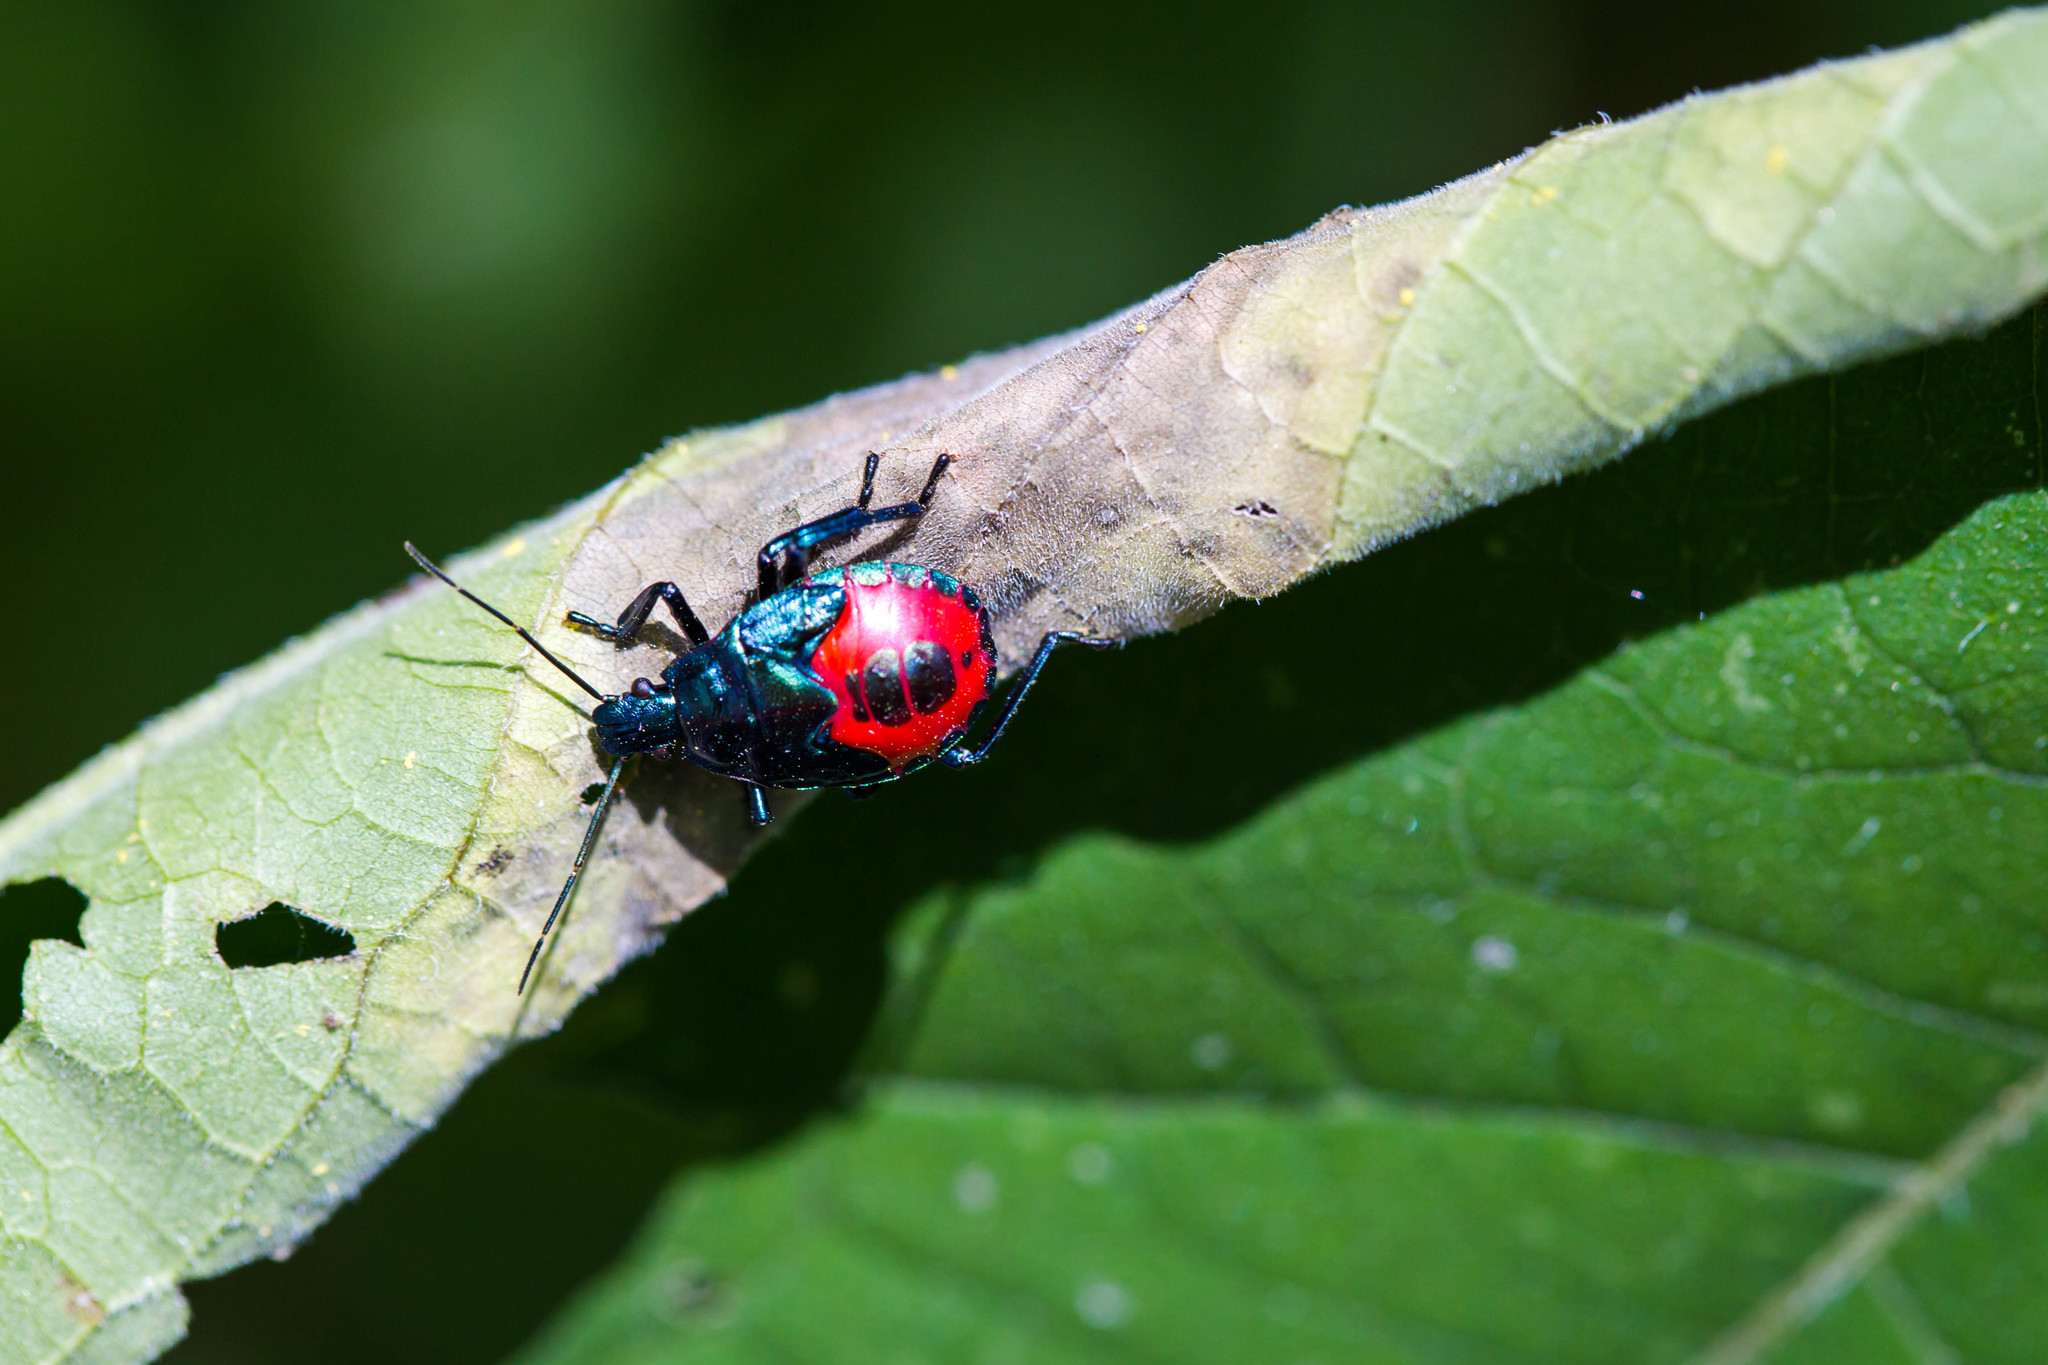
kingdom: Animalia
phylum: Arthropoda
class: Insecta
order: Hemiptera
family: Pentatomidae
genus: Euthyrhynchus
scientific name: Euthyrhynchus floridanus
